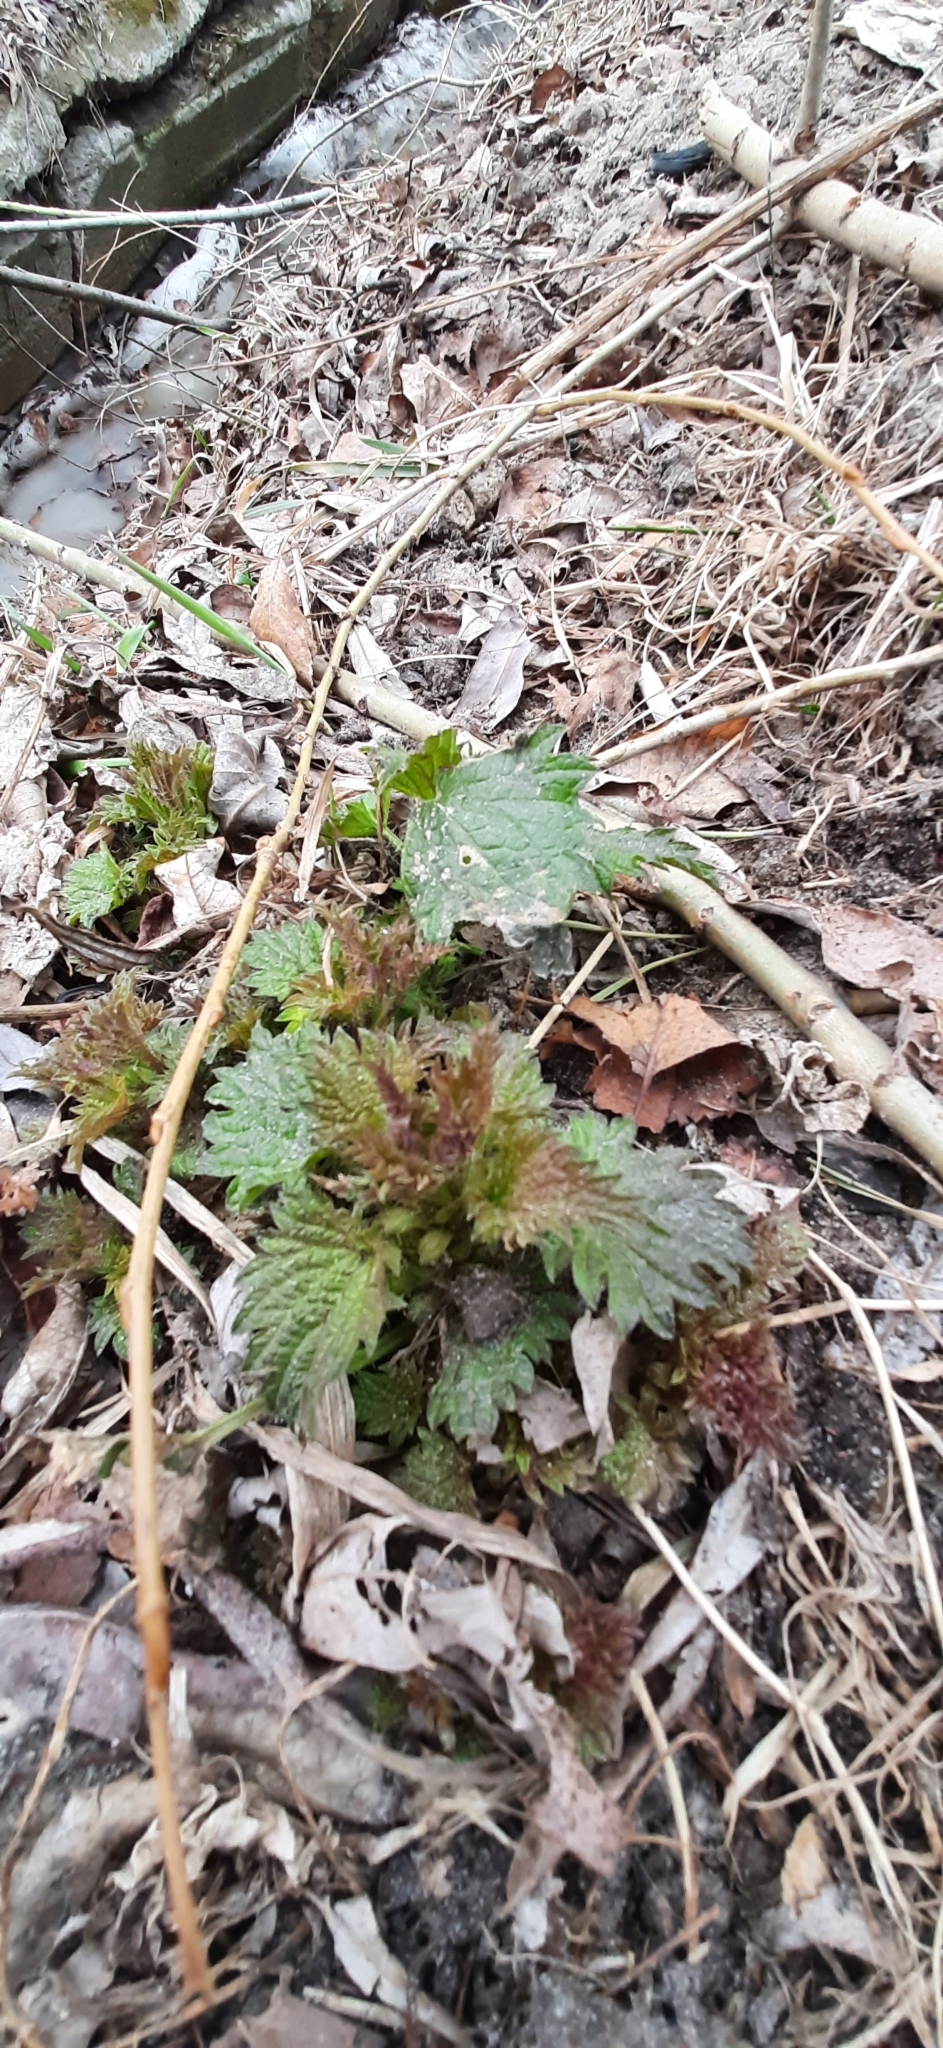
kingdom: Plantae
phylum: Tracheophyta
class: Magnoliopsida
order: Rosales
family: Urticaceae
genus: Urtica
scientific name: Urtica dioica
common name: Common nettle
